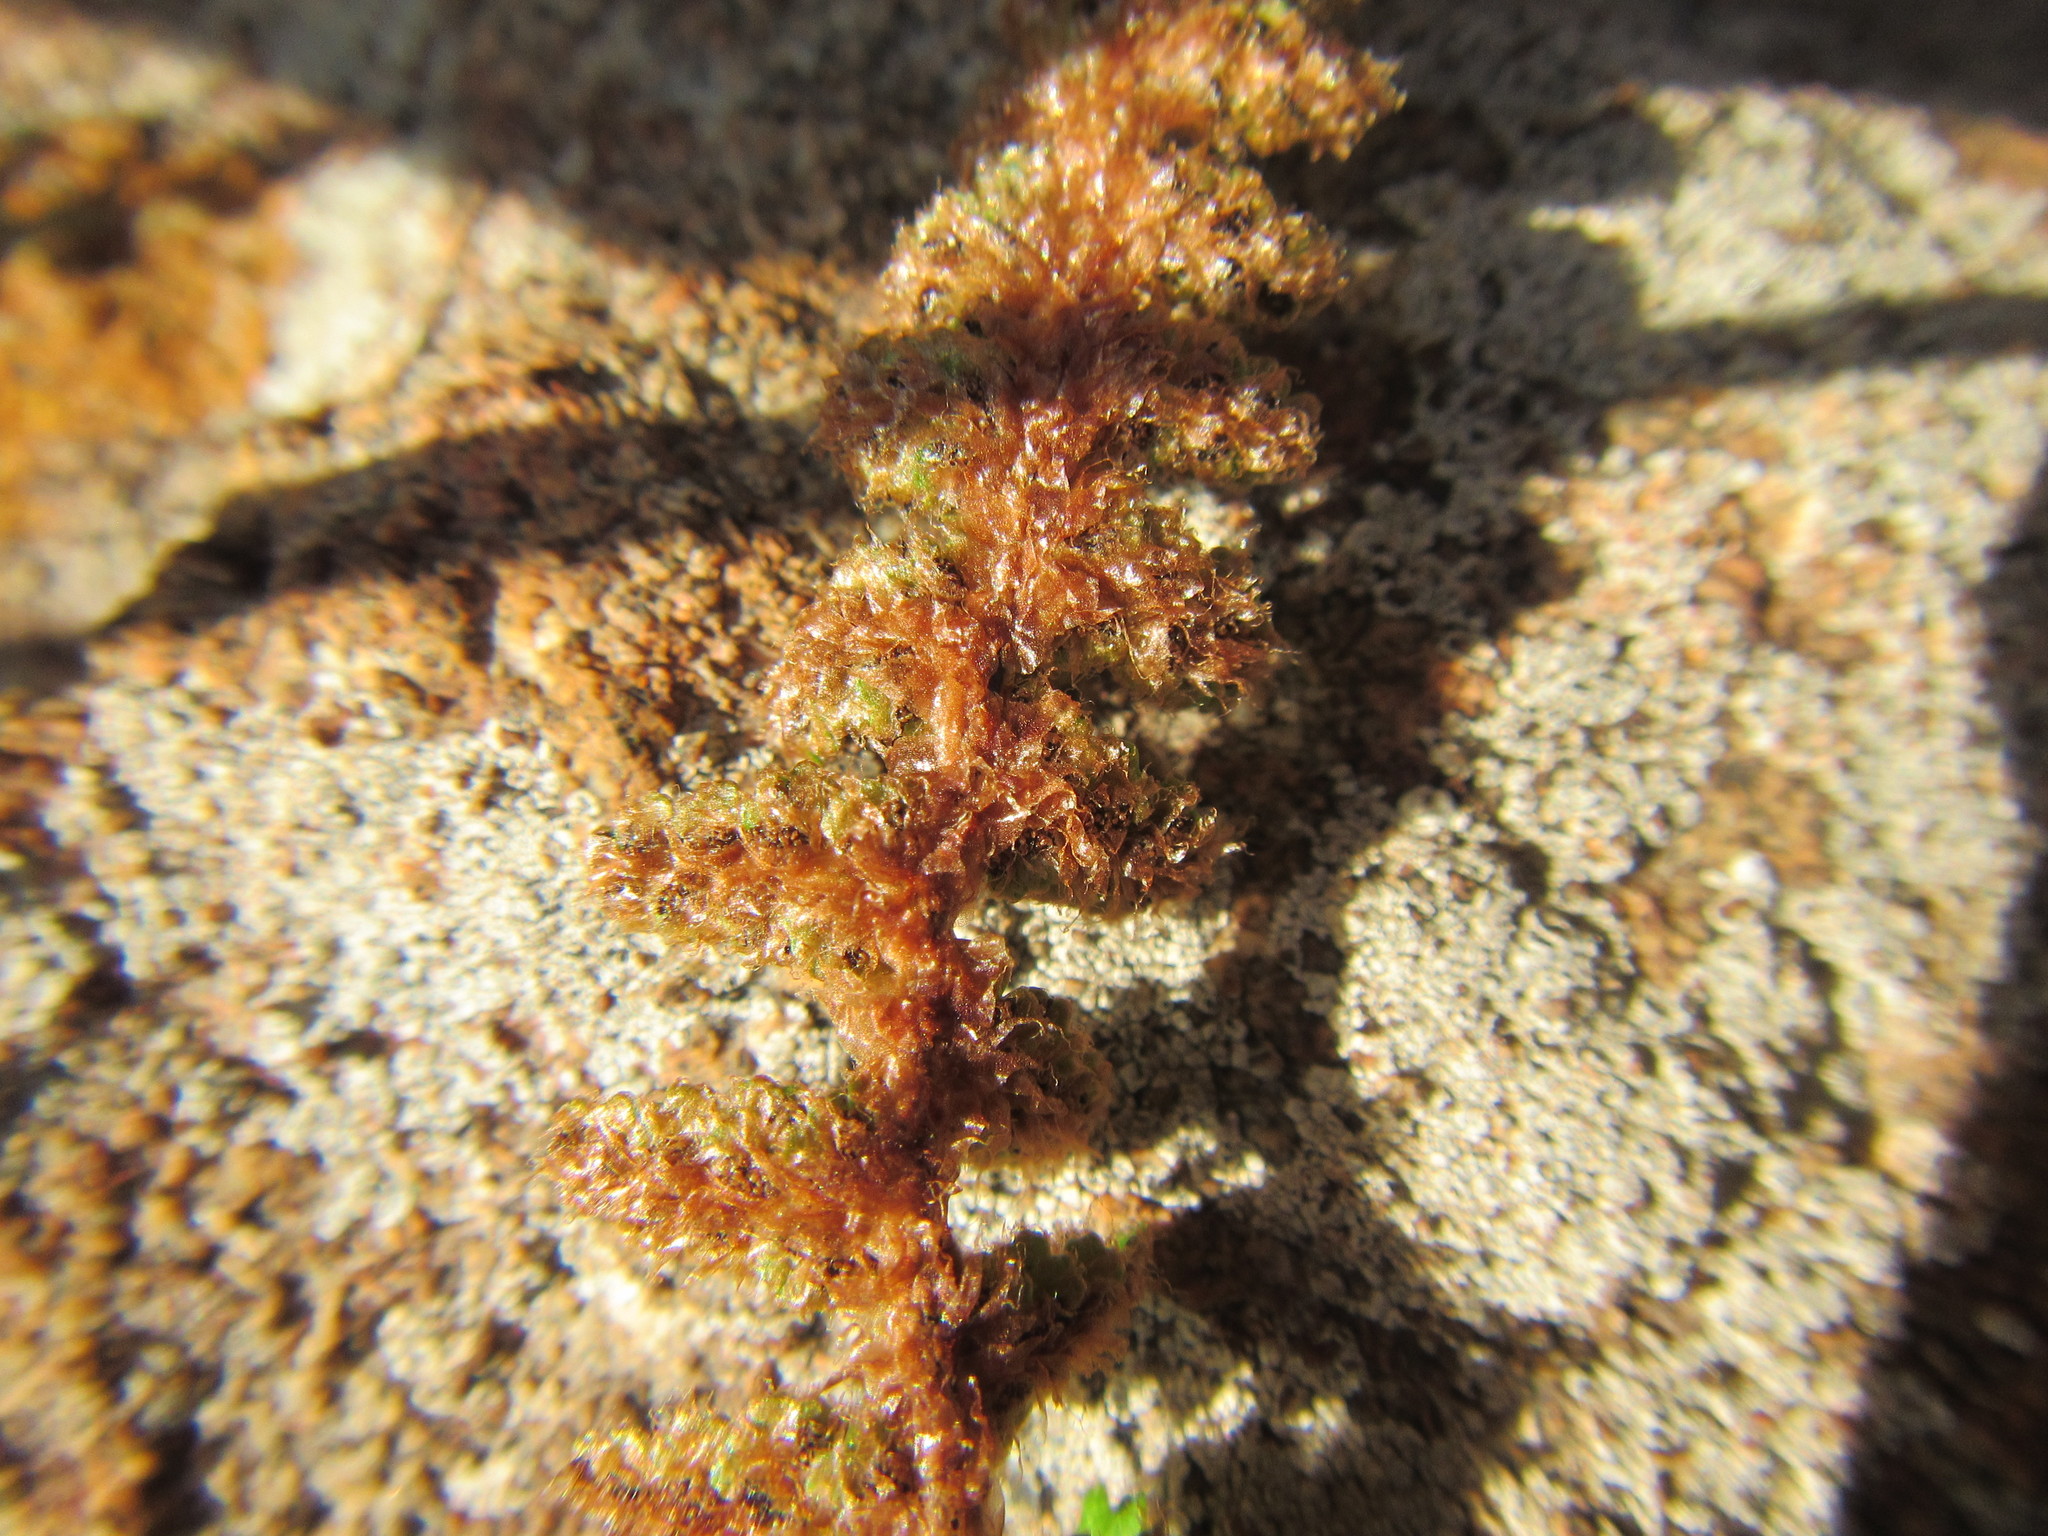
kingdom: Plantae
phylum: Tracheophyta
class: Polypodiopsida
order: Polypodiales
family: Aspleniaceae
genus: Asplenium
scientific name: Asplenium cordatum
